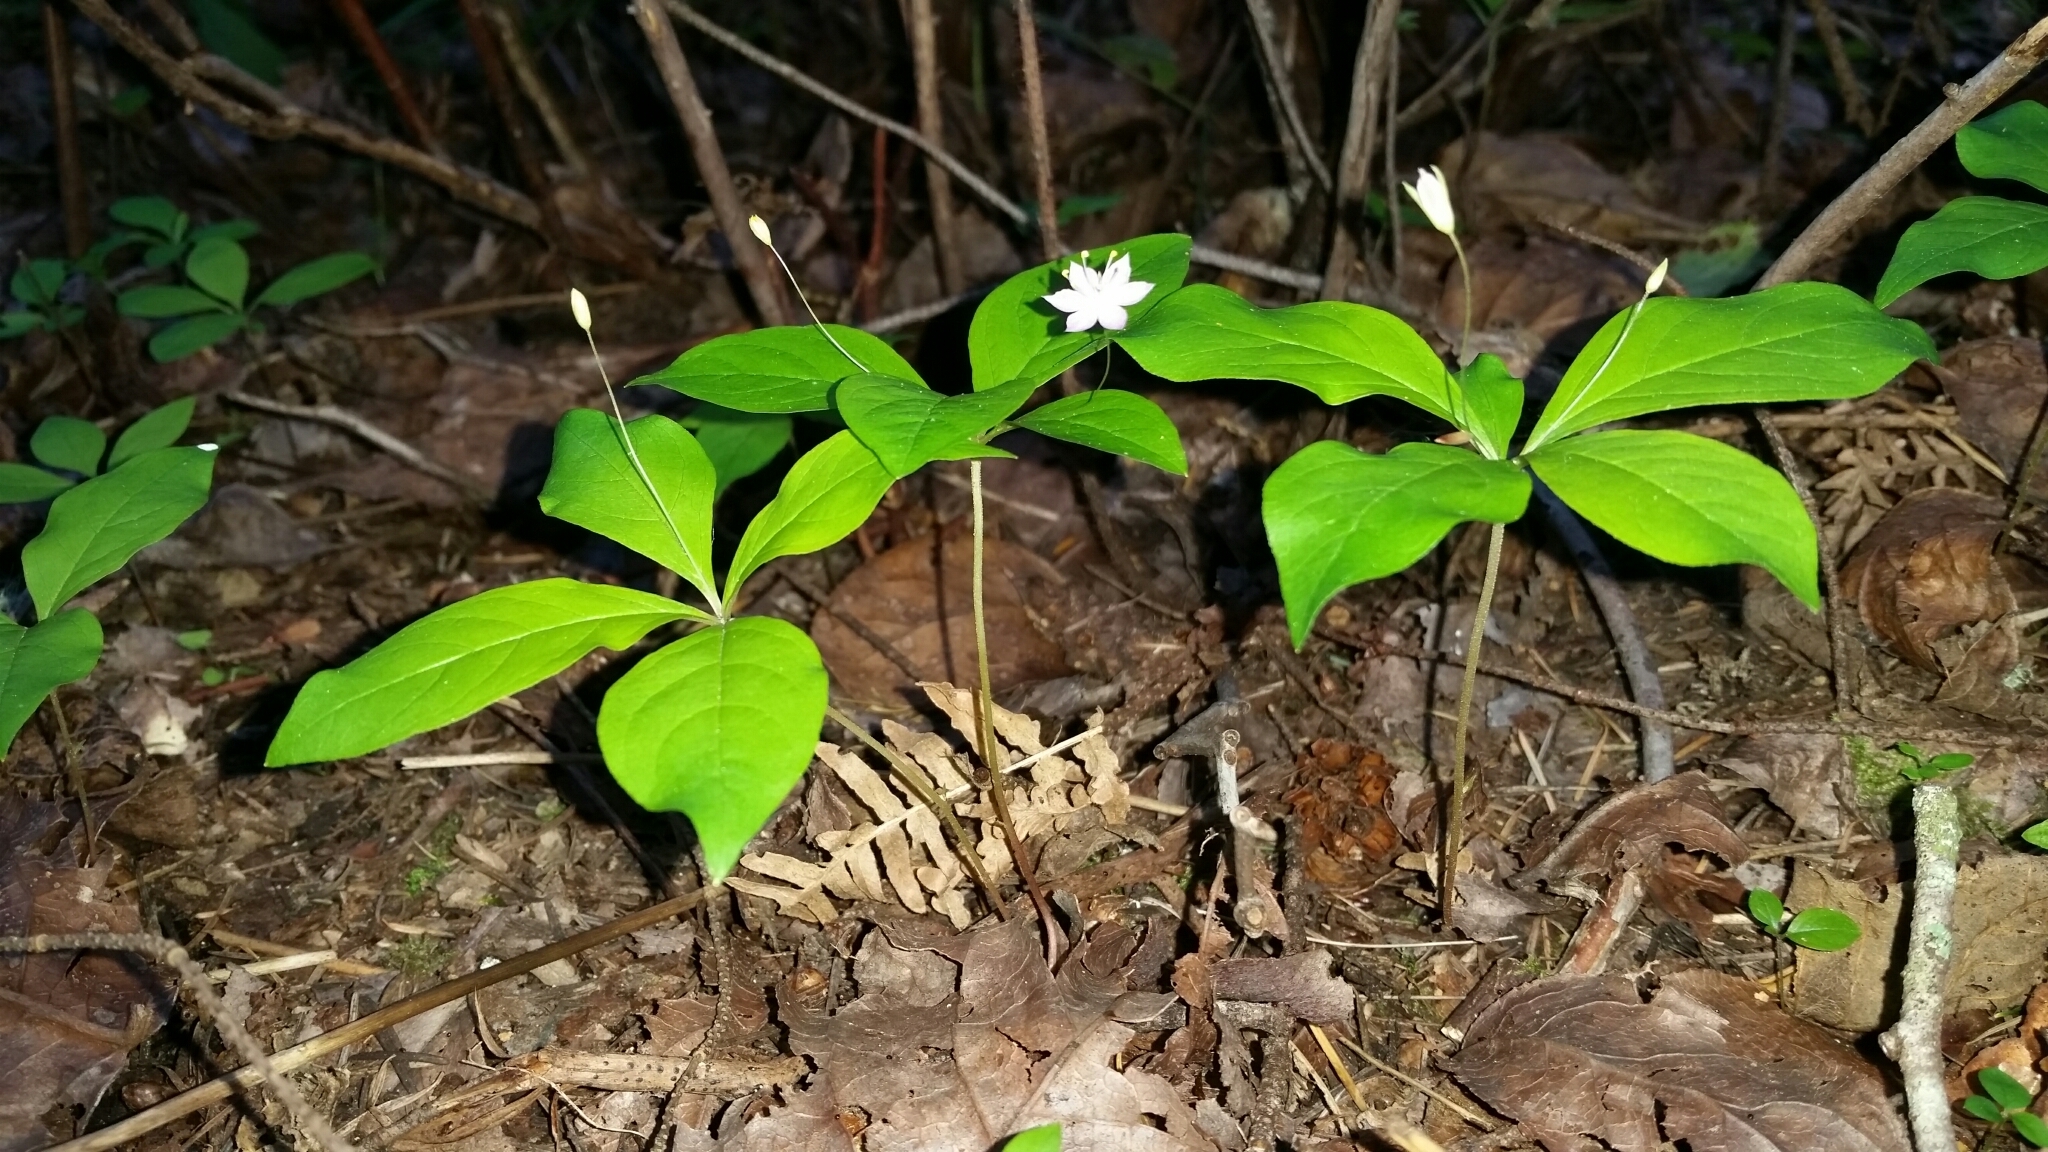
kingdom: Plantae
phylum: Tracheophyta
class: Magnoliopsida
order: Ericales
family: Primulaceae
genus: Lysimachia
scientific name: Lysimachia latifolia
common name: Pacific starflower
